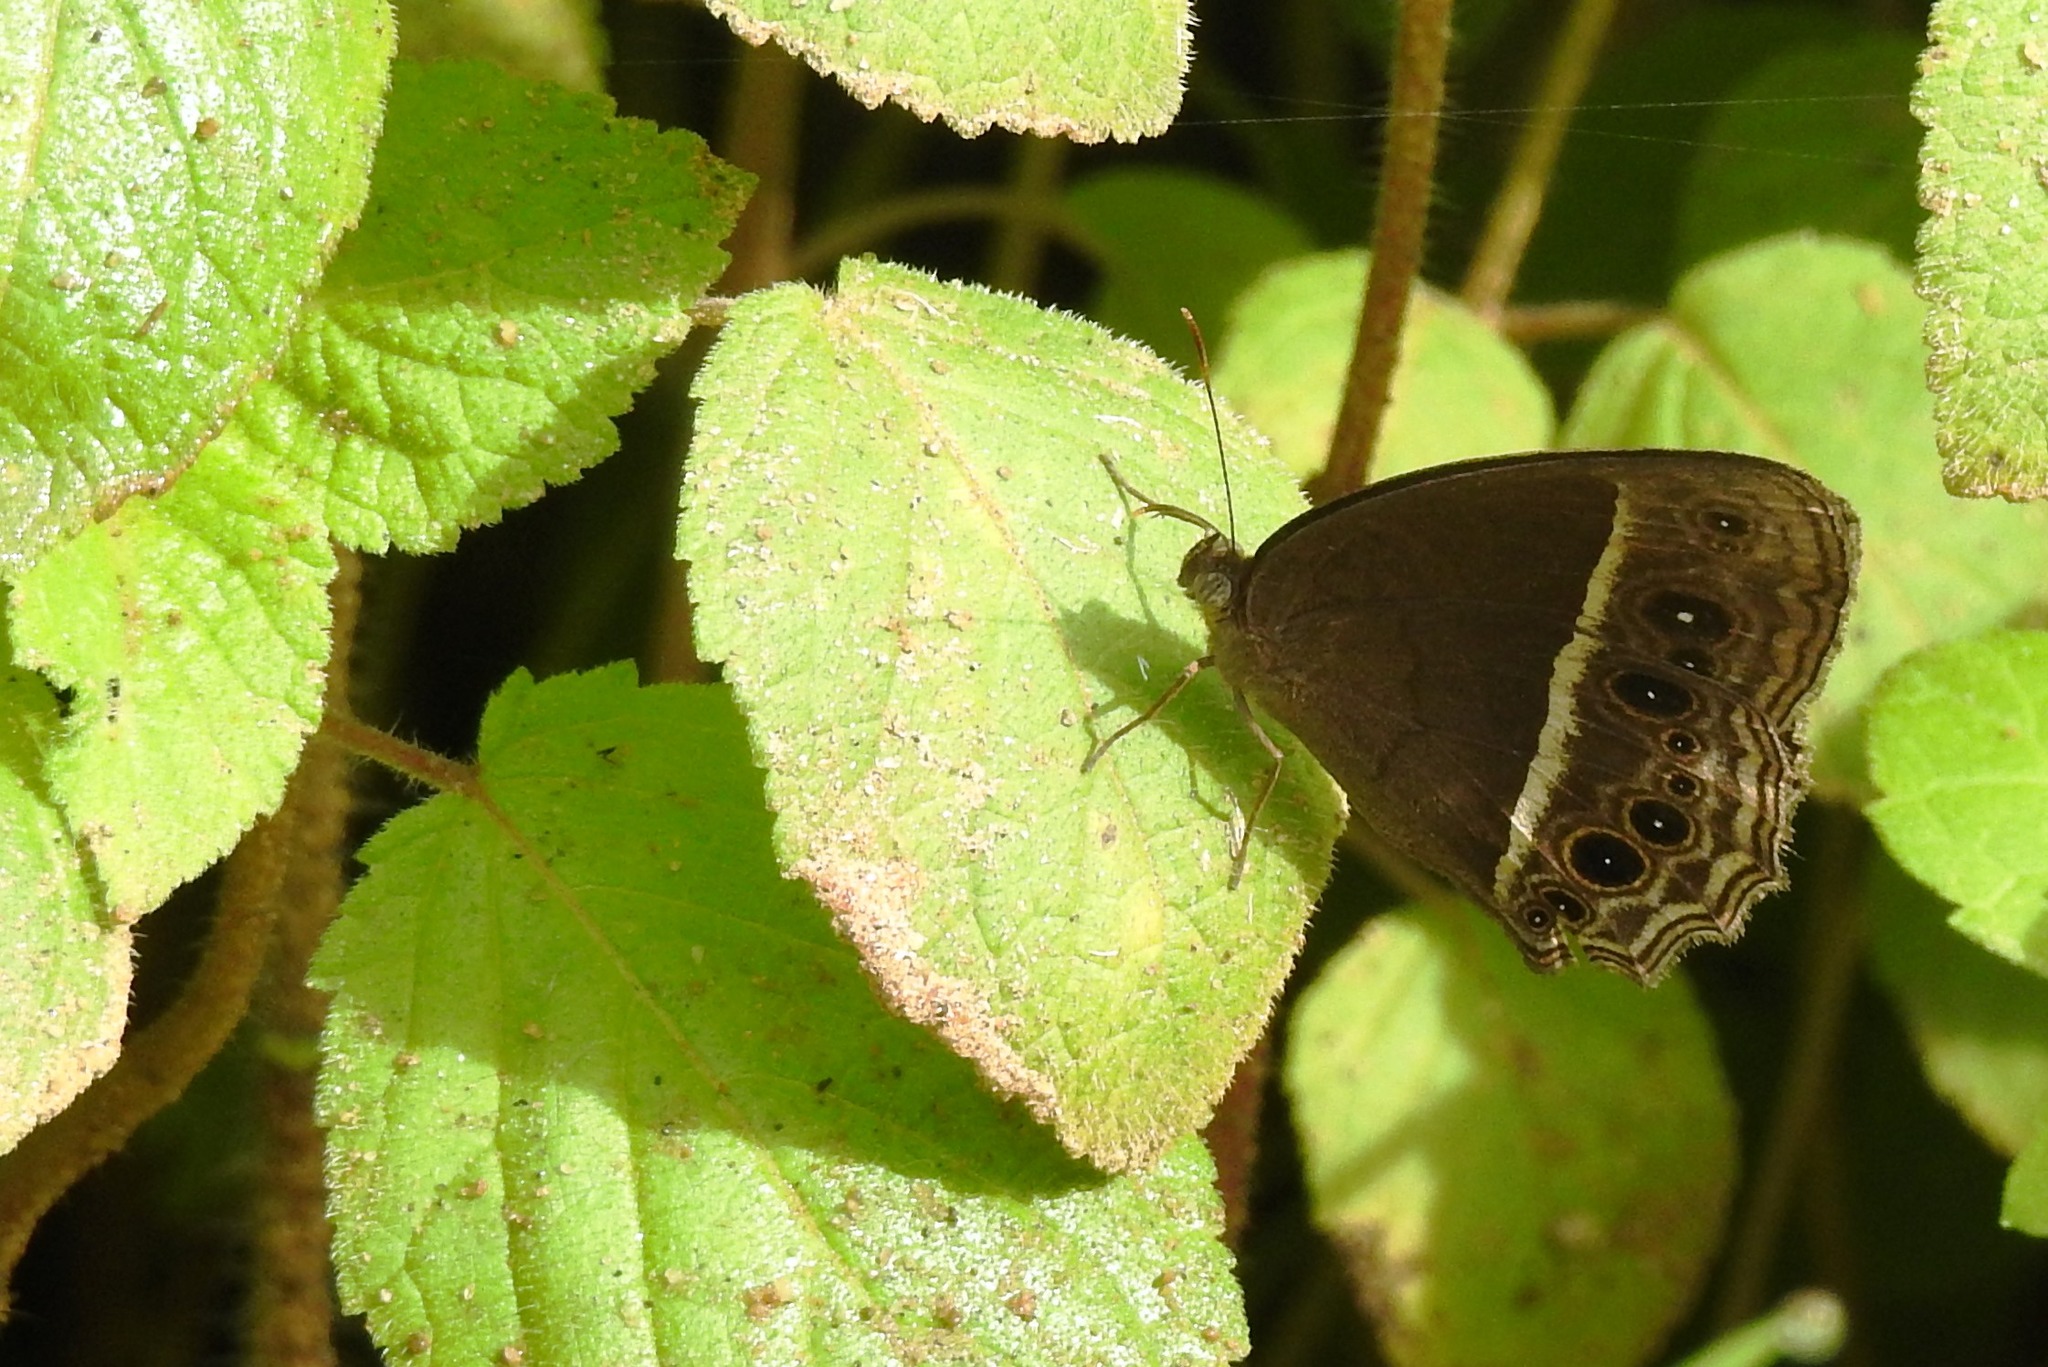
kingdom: Animalia
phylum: Arthropoda
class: Insecta
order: Lepidoptera
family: Nymphalidae
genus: Mycalesis
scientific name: Mycalesis mineus
